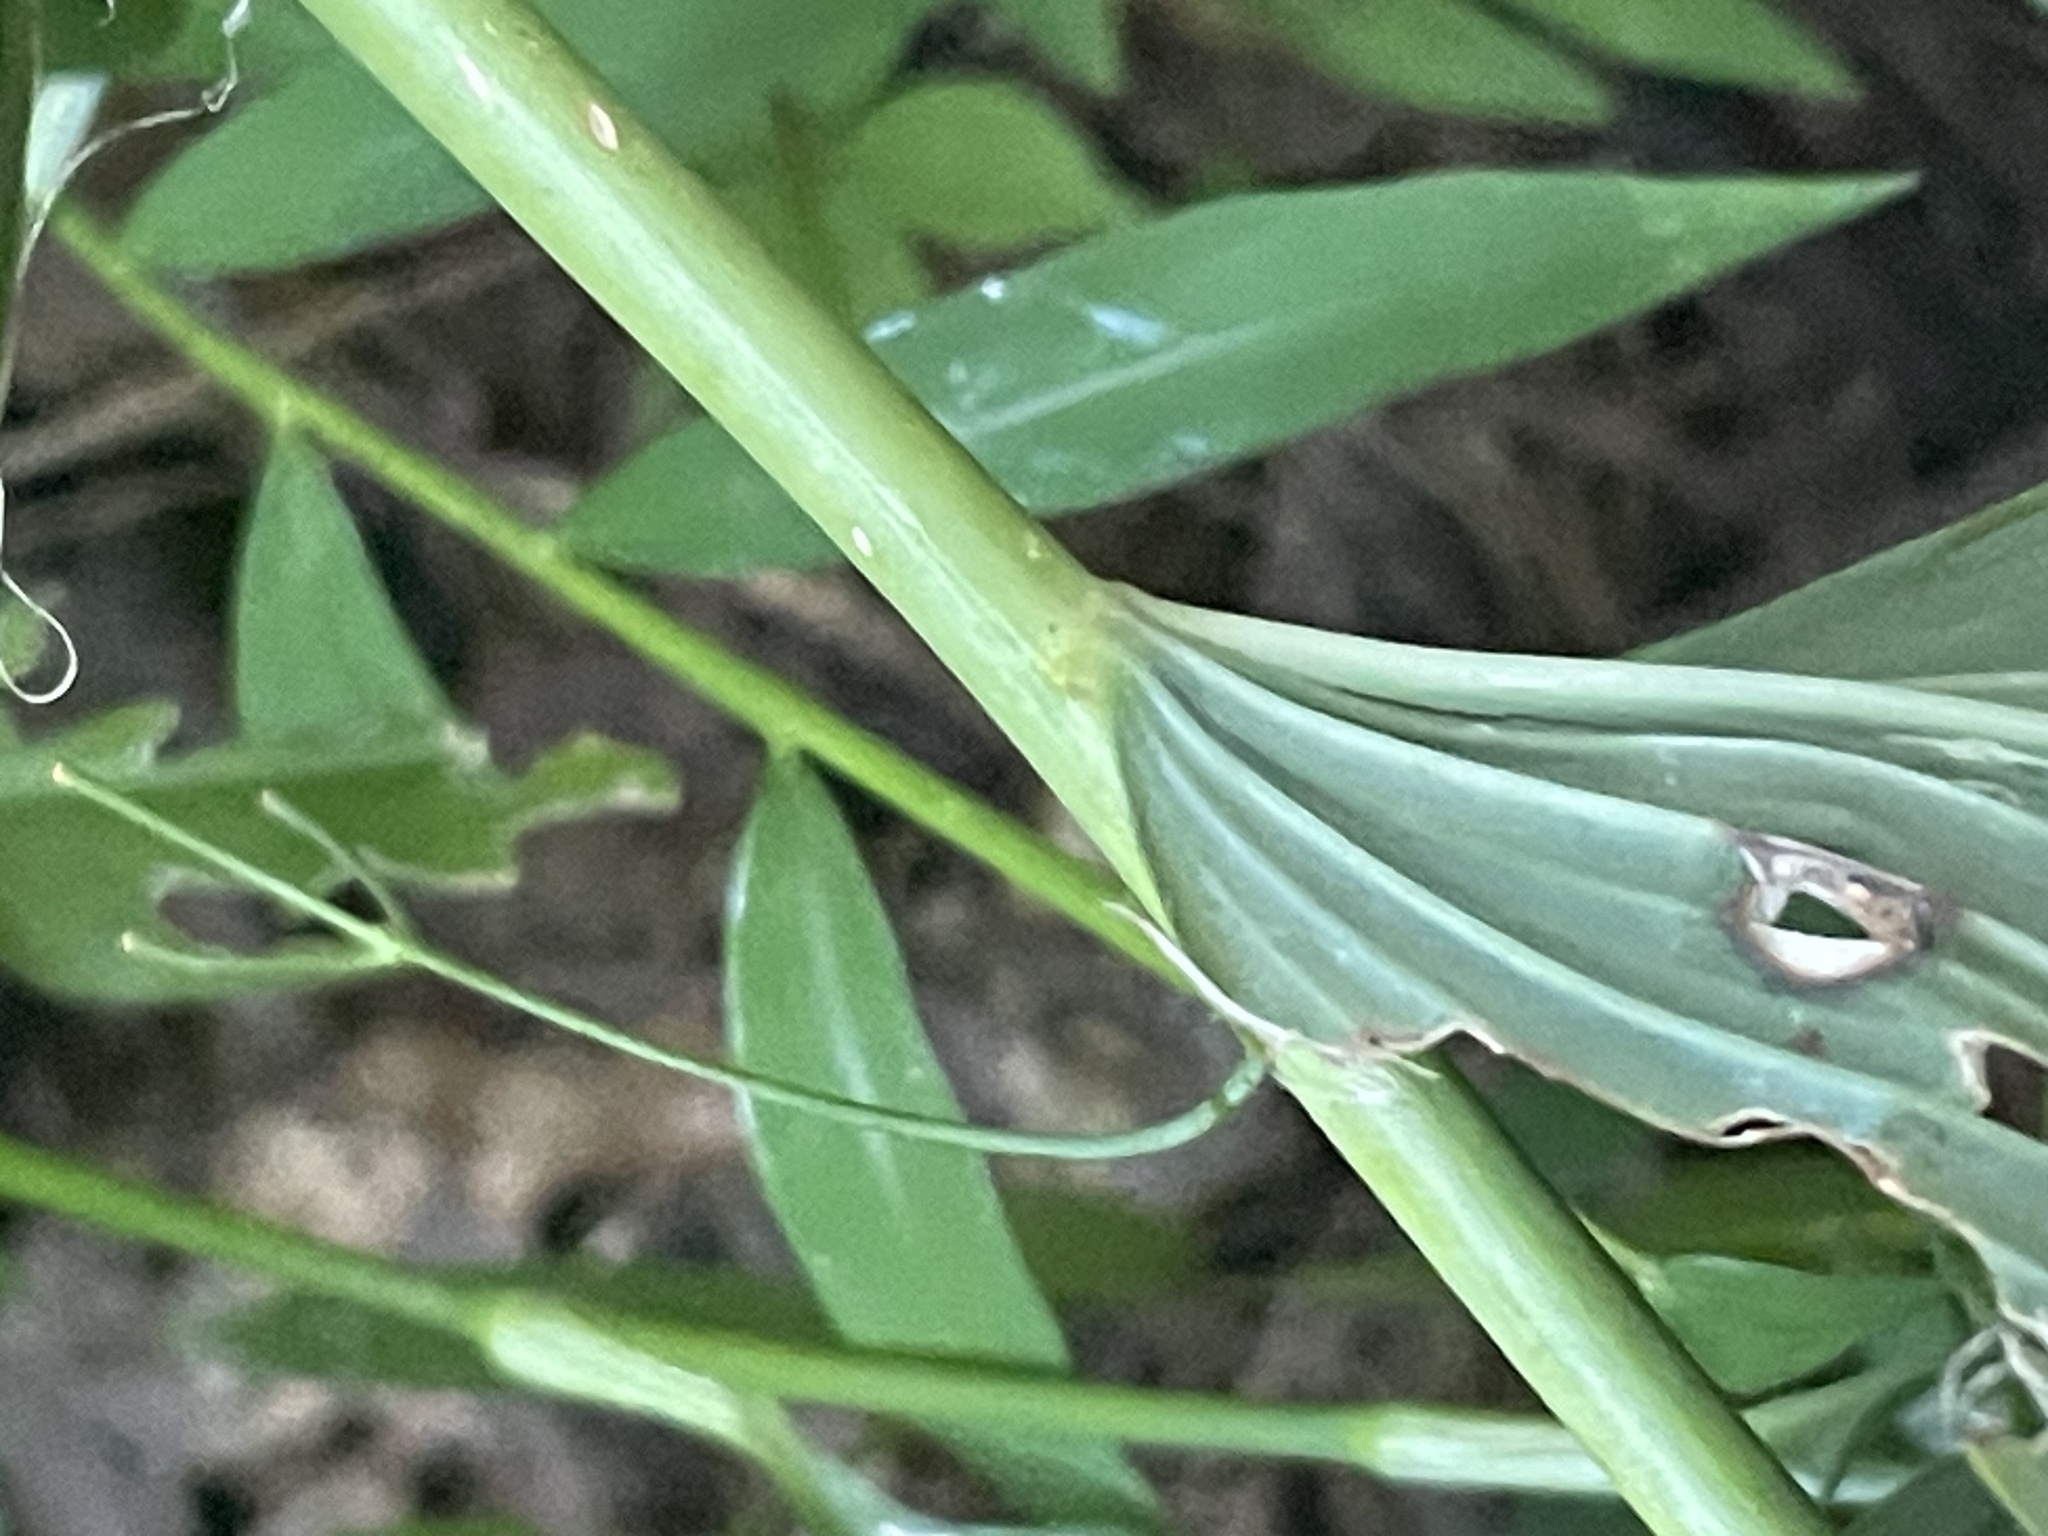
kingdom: Plantae
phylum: Tracheophyta
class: Liliopsida
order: Asparagales
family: Asparagaceae
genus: Polygonatum
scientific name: Polygonatum biflorum
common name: American solomon's-seal
